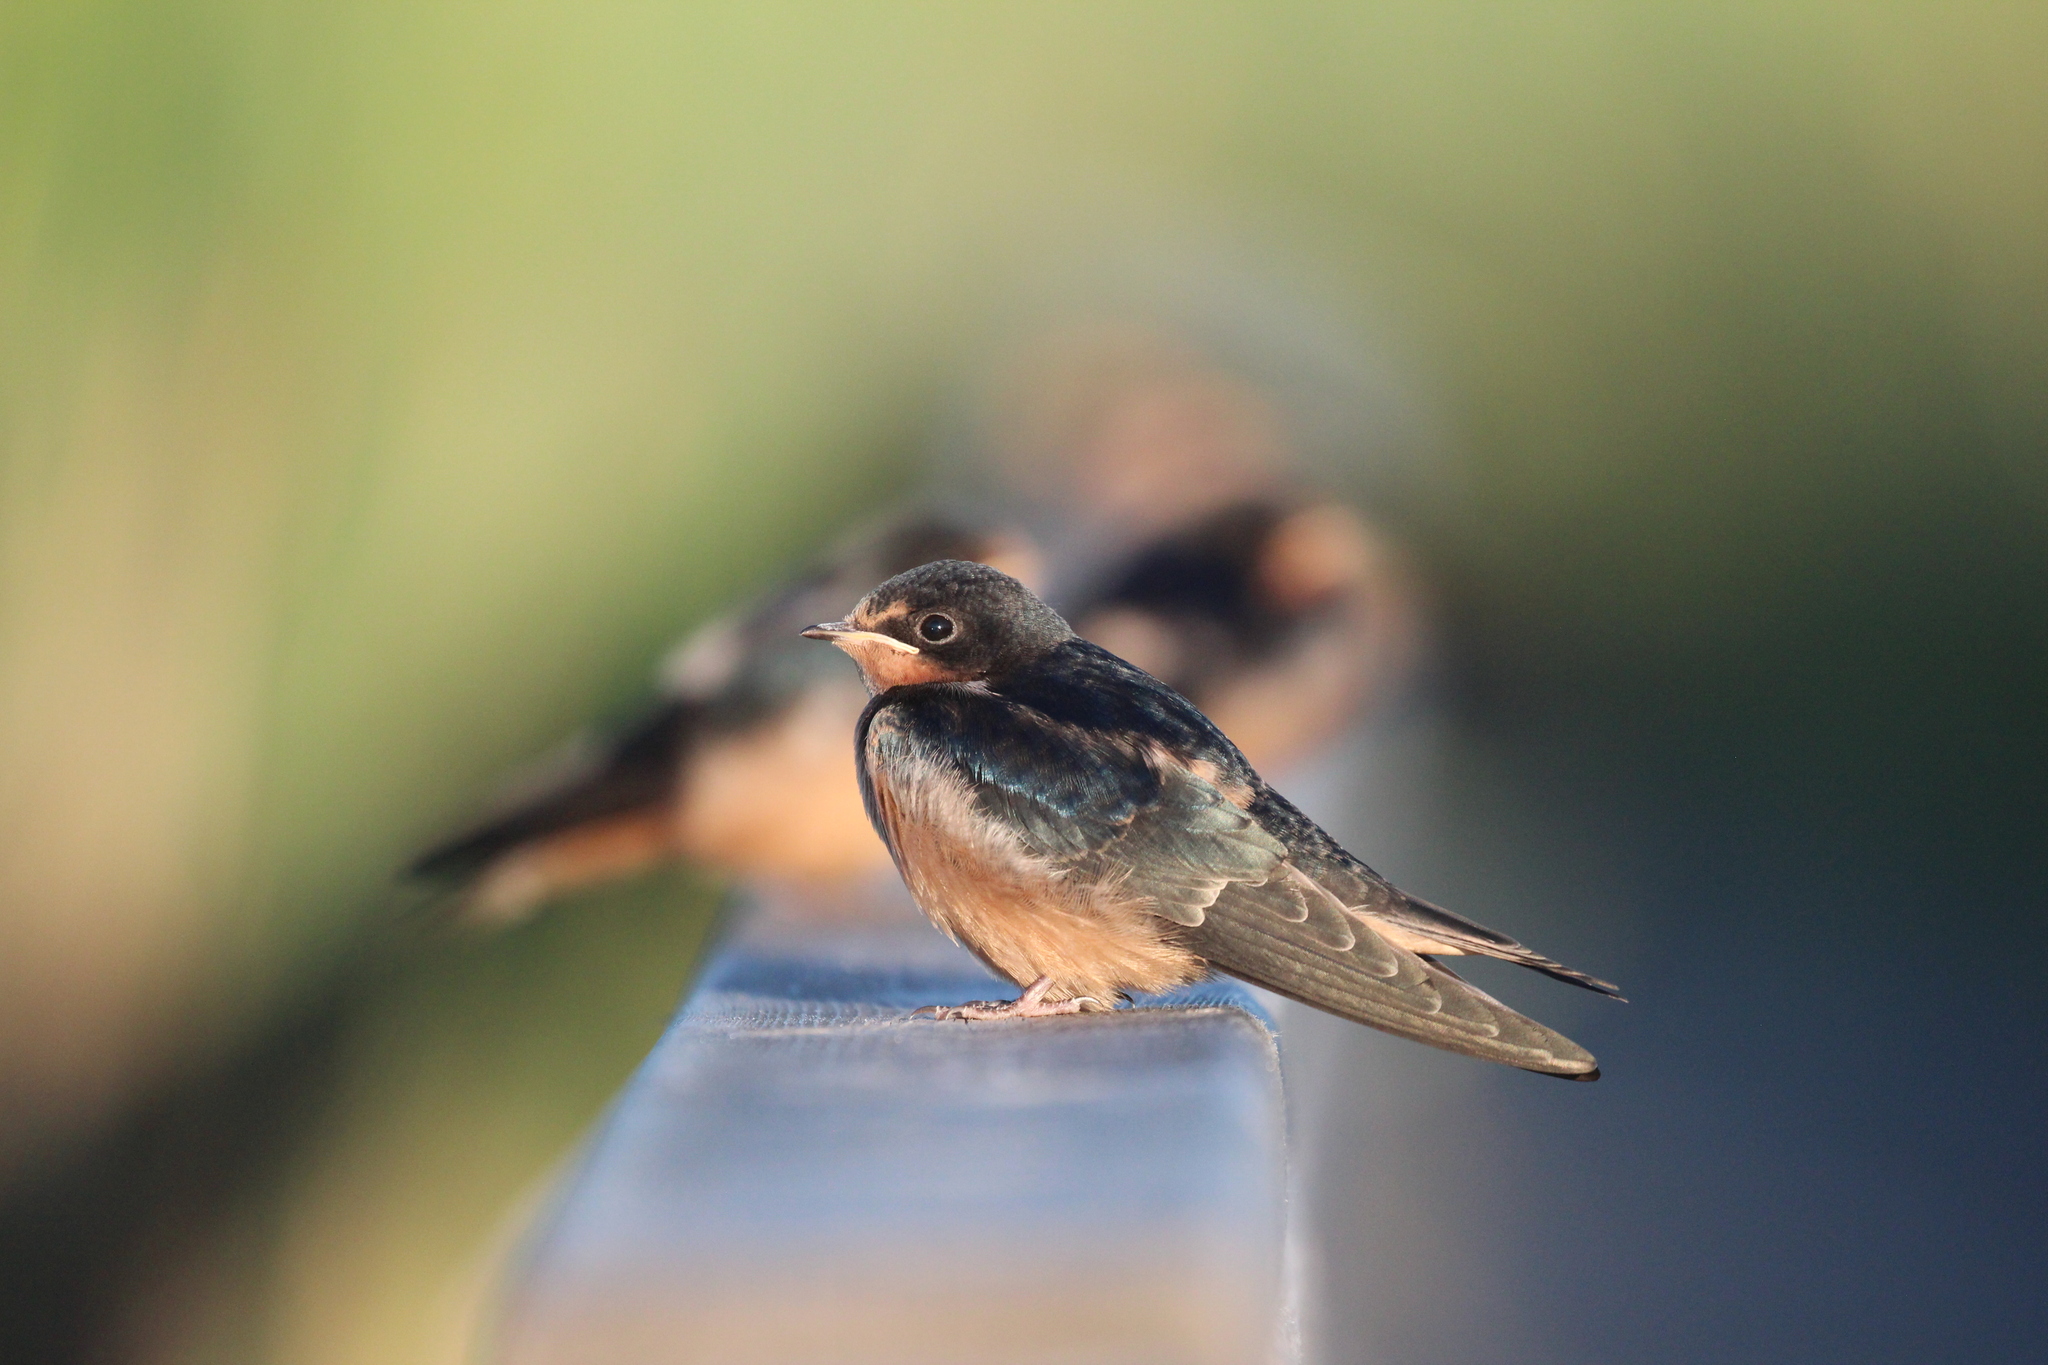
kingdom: Animalia
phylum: Chordata
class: Aves
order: Passeriformes
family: Hirundinidae
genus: Hirundo
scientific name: Hirundo rustica
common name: Barn swallow
